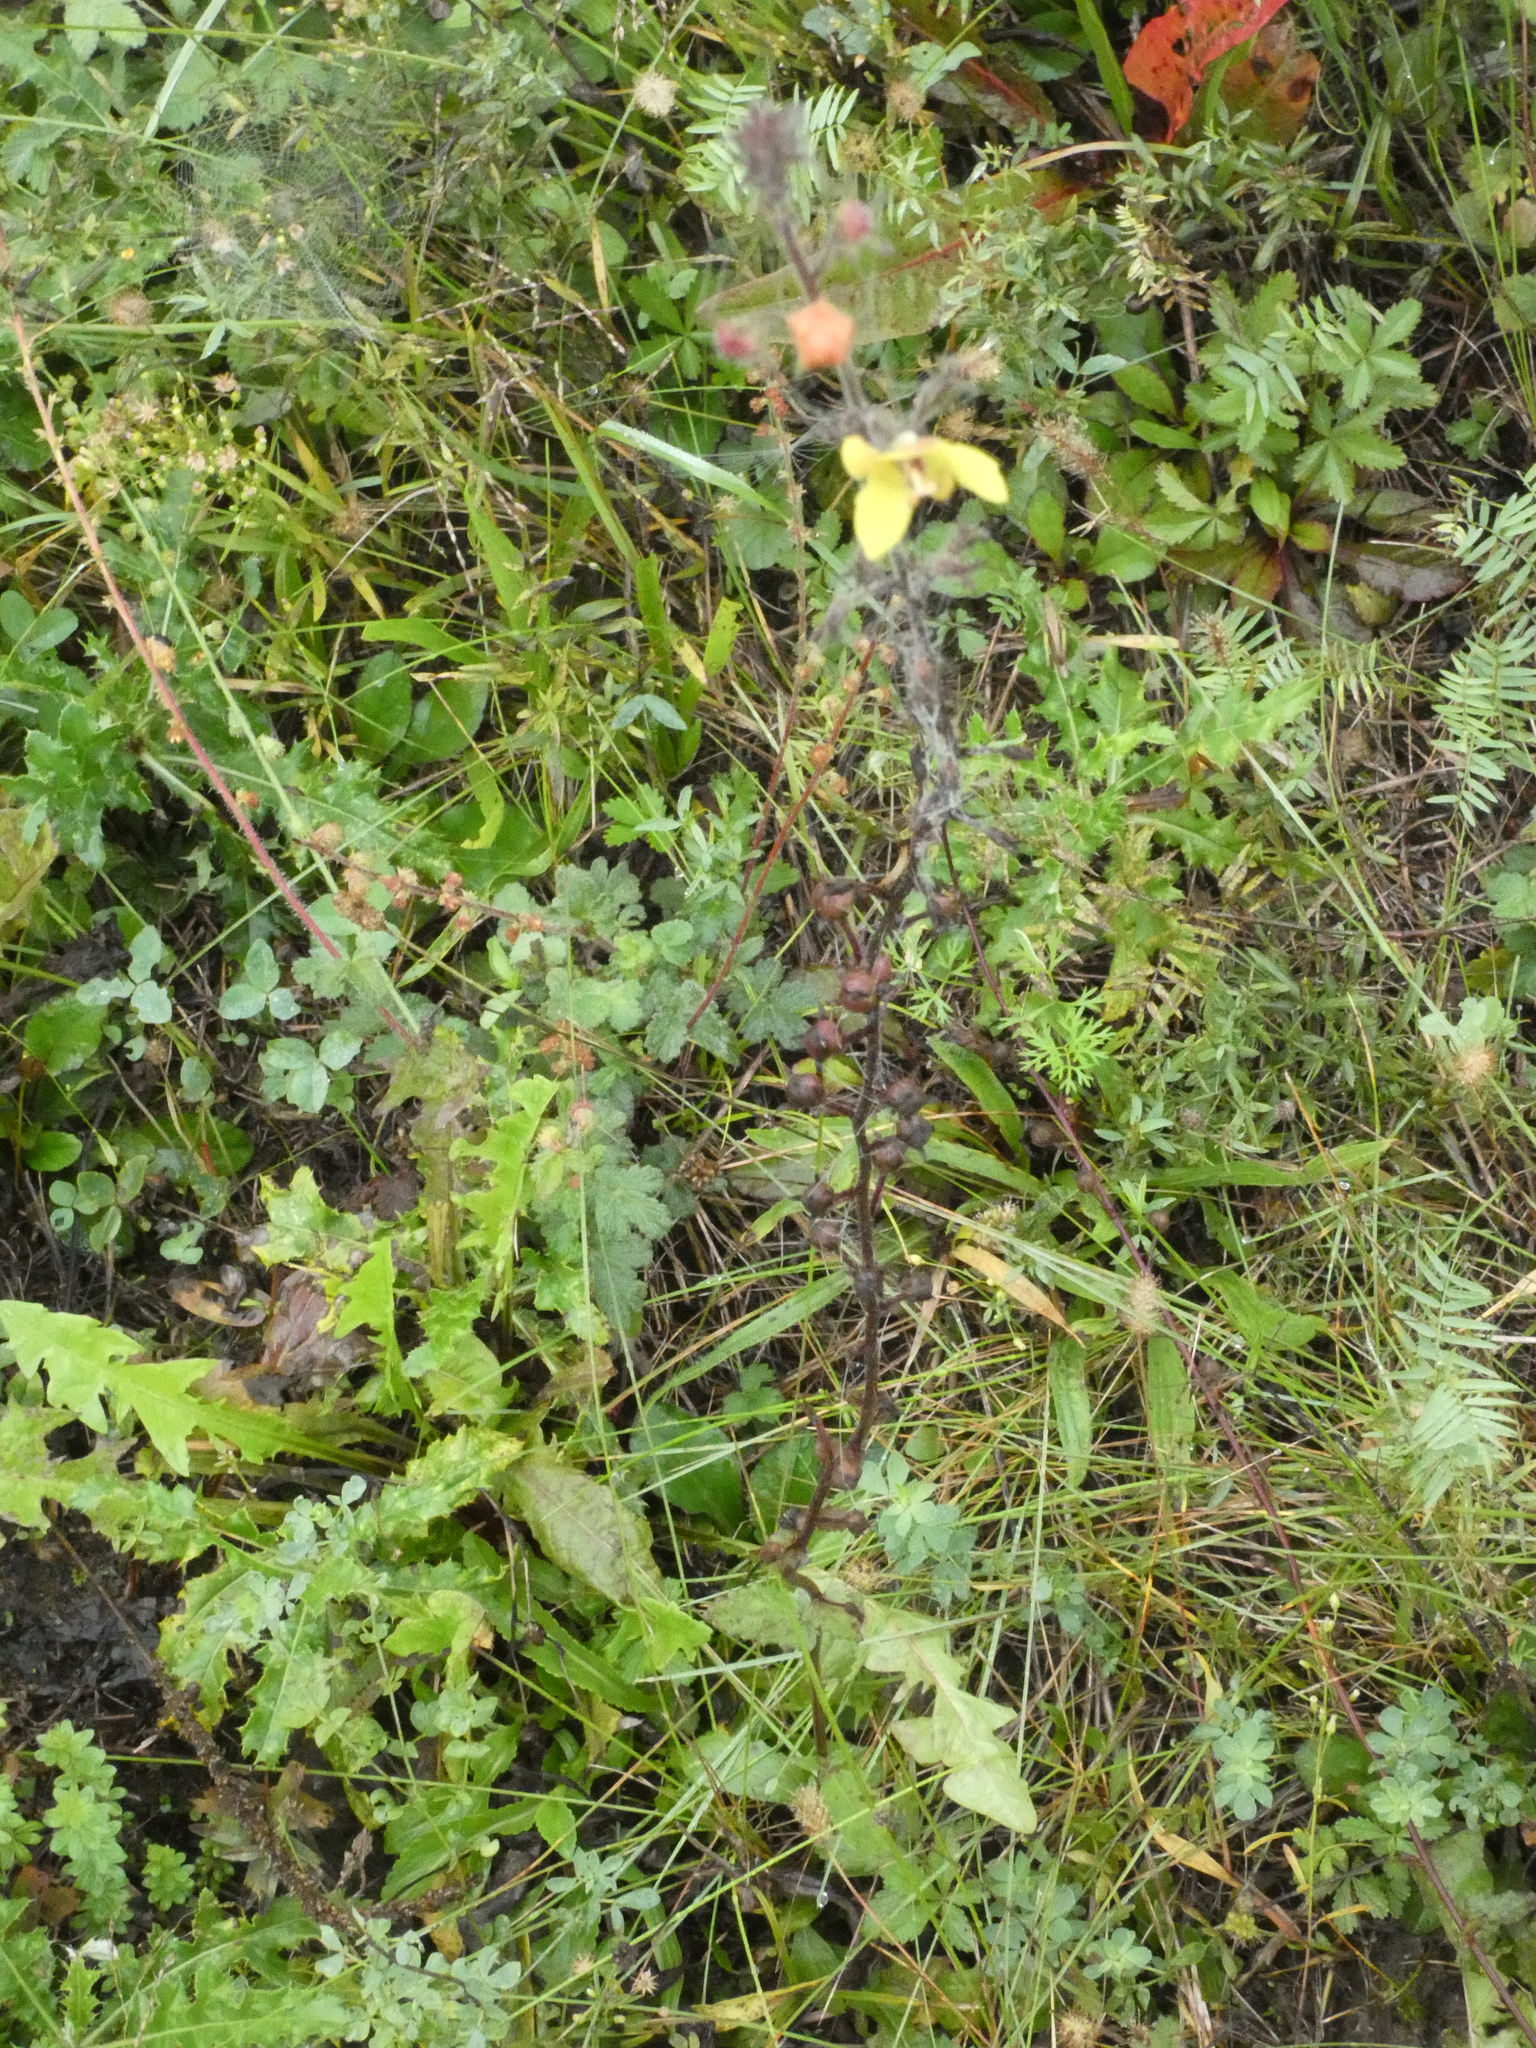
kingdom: Plantae
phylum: Tracheophyta
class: Magnoliopsida
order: Lamiales
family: Scrophulariaceae
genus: Verbascum
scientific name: Verbascum blattaria
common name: Moth mullein
